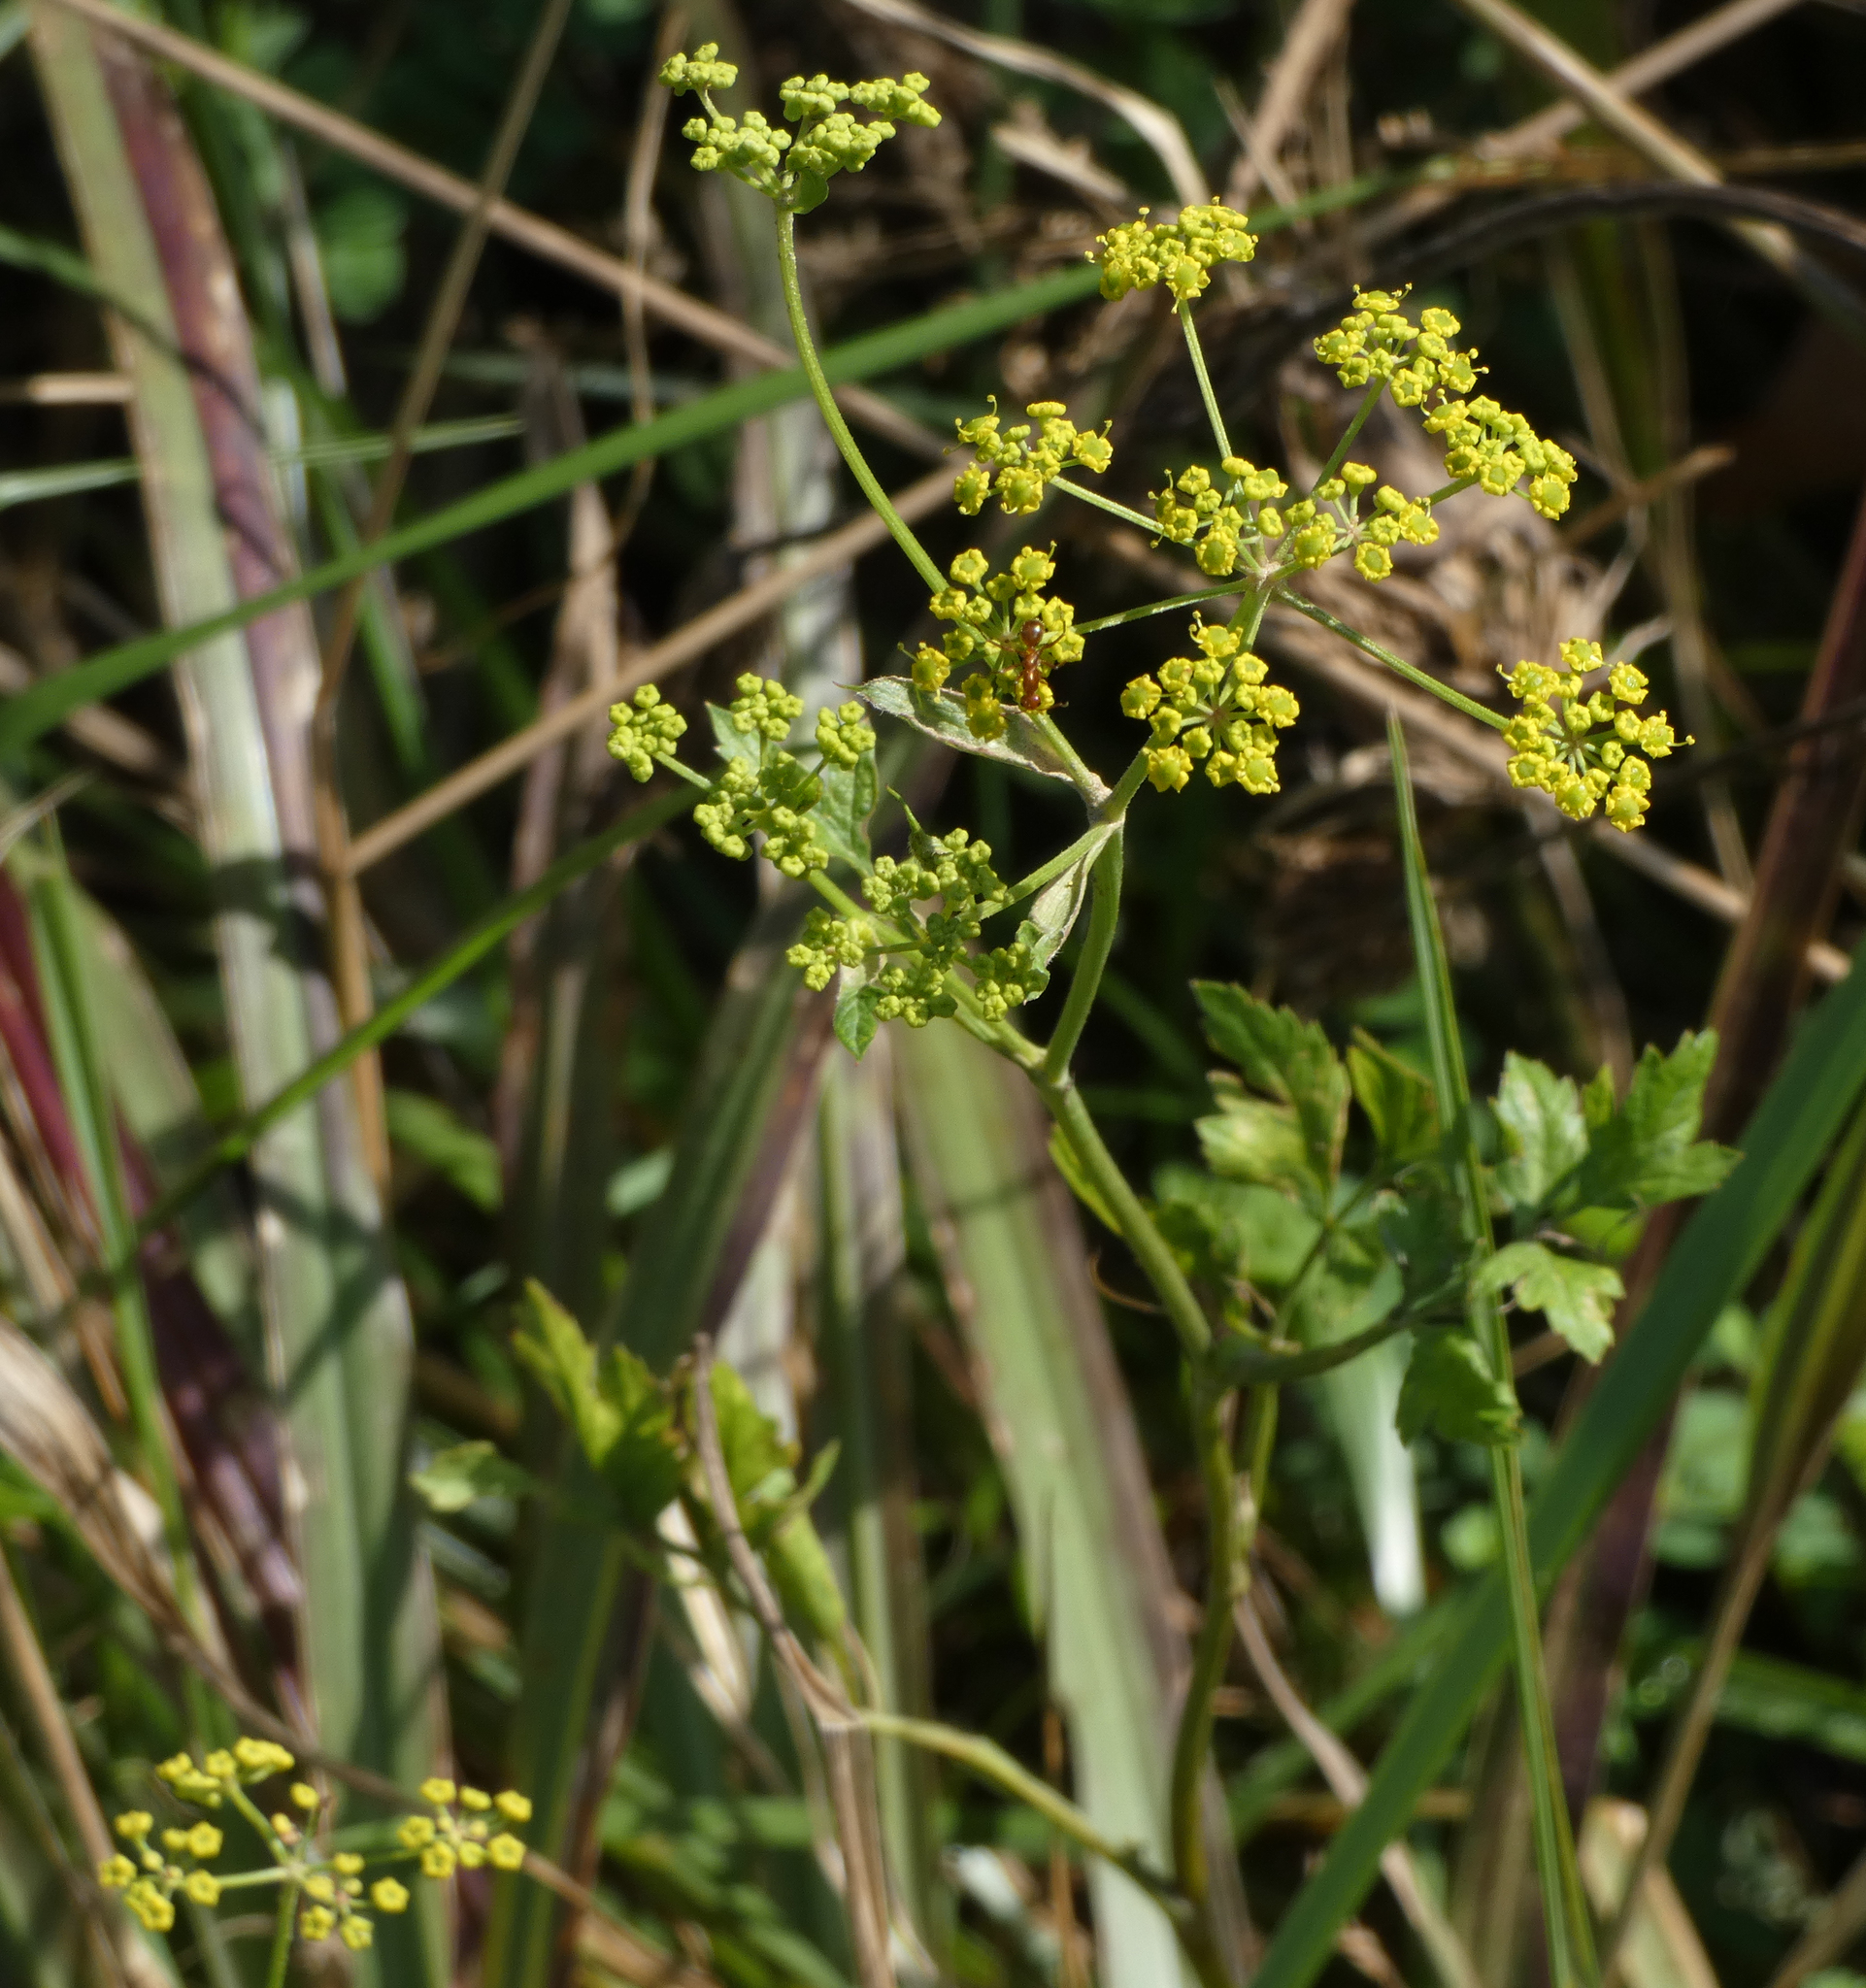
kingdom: Plantae
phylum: Tracheophyta
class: Magnoliopsida
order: Apiales
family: Apiaceae
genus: Pastinaca
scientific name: Pastinaca sativa
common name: Wild parsnip
